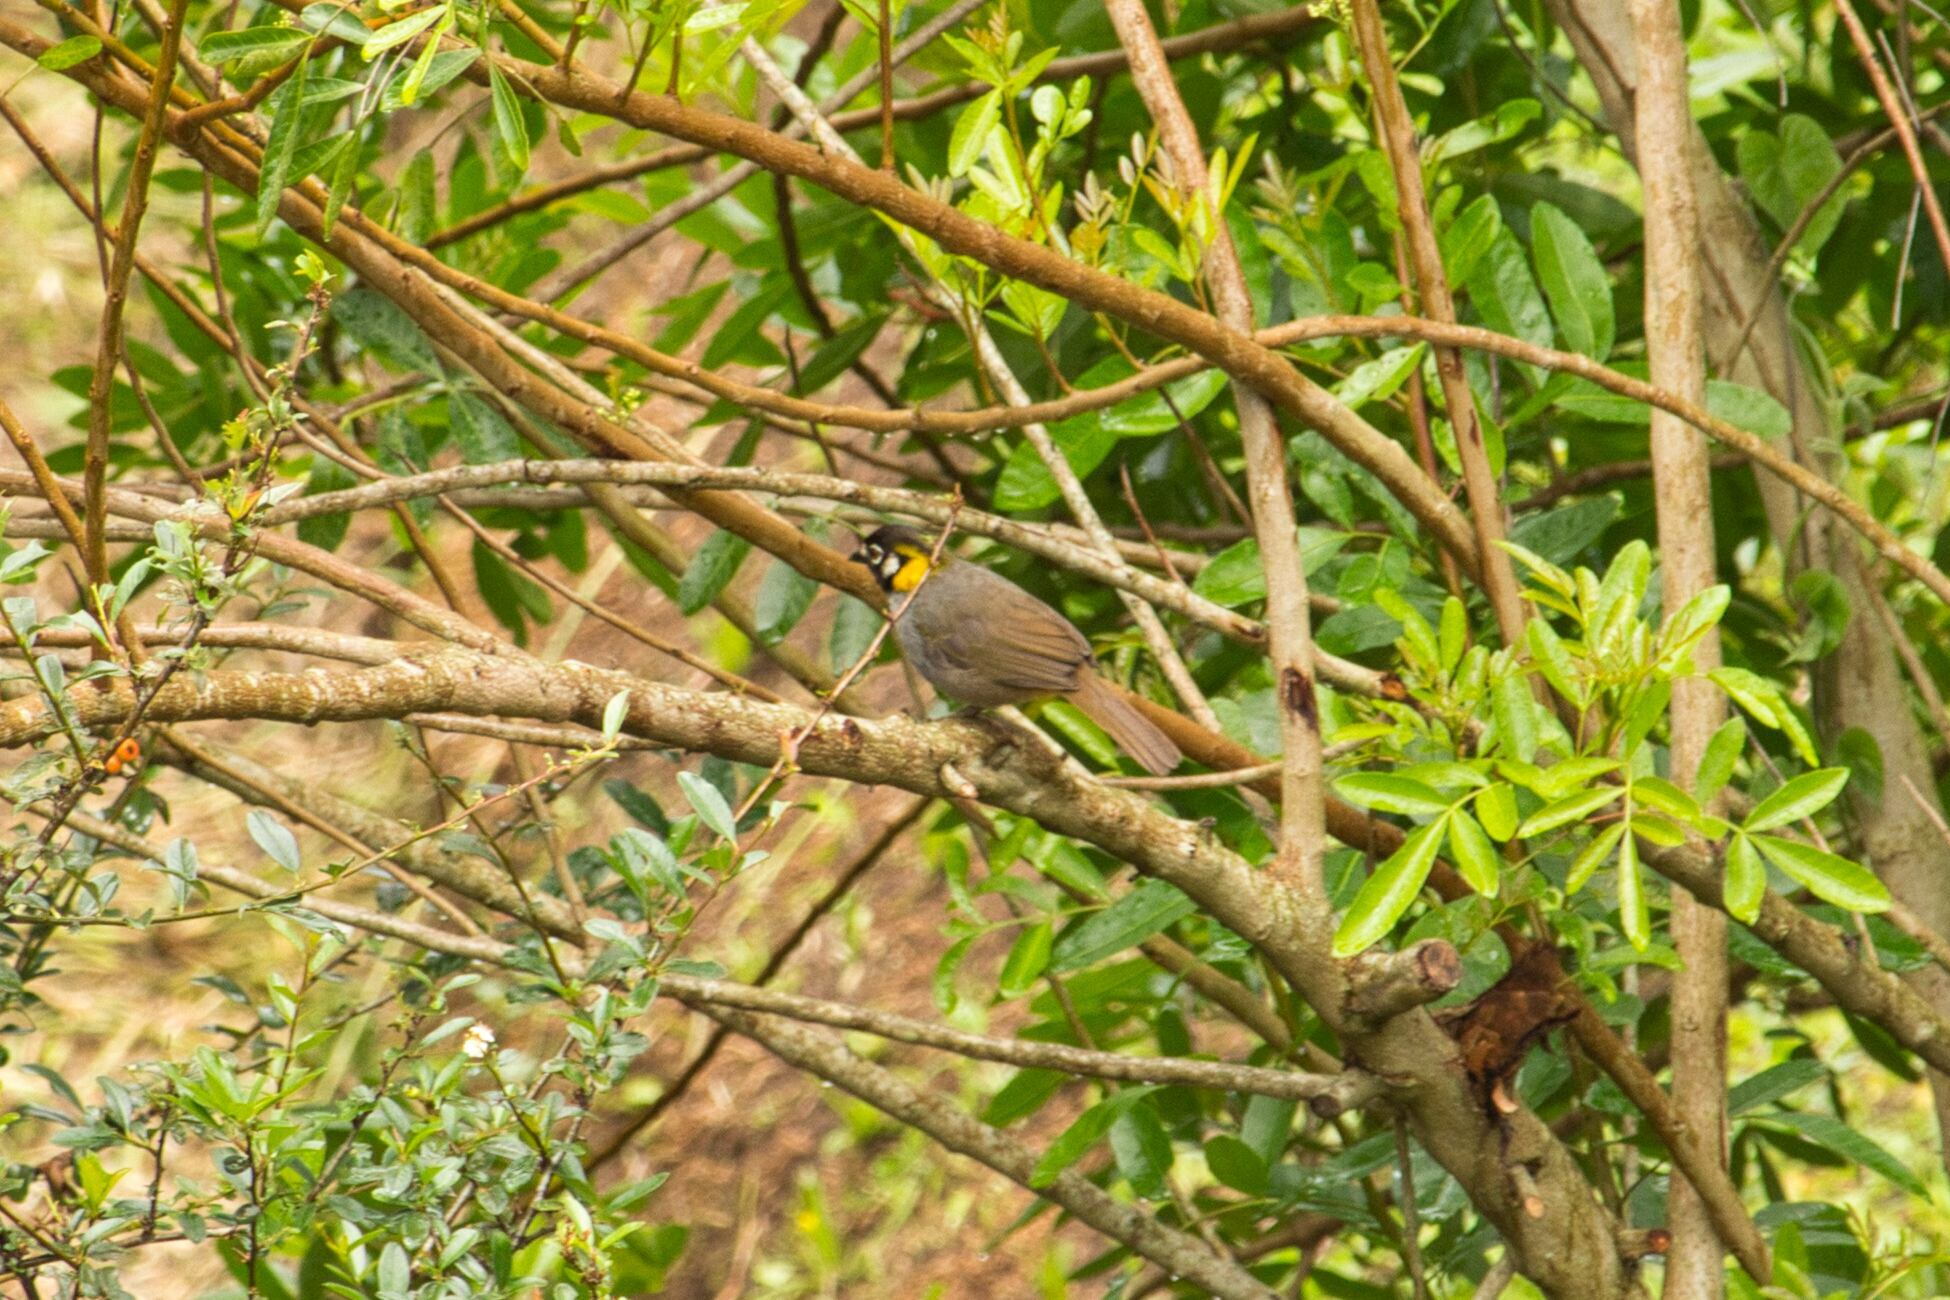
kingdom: Animalia
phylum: Chordata
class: Aves
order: Passeriformes
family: Passerellidae
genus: Melozone
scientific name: Melozone leucotis
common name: White-eared ground-sparrow
